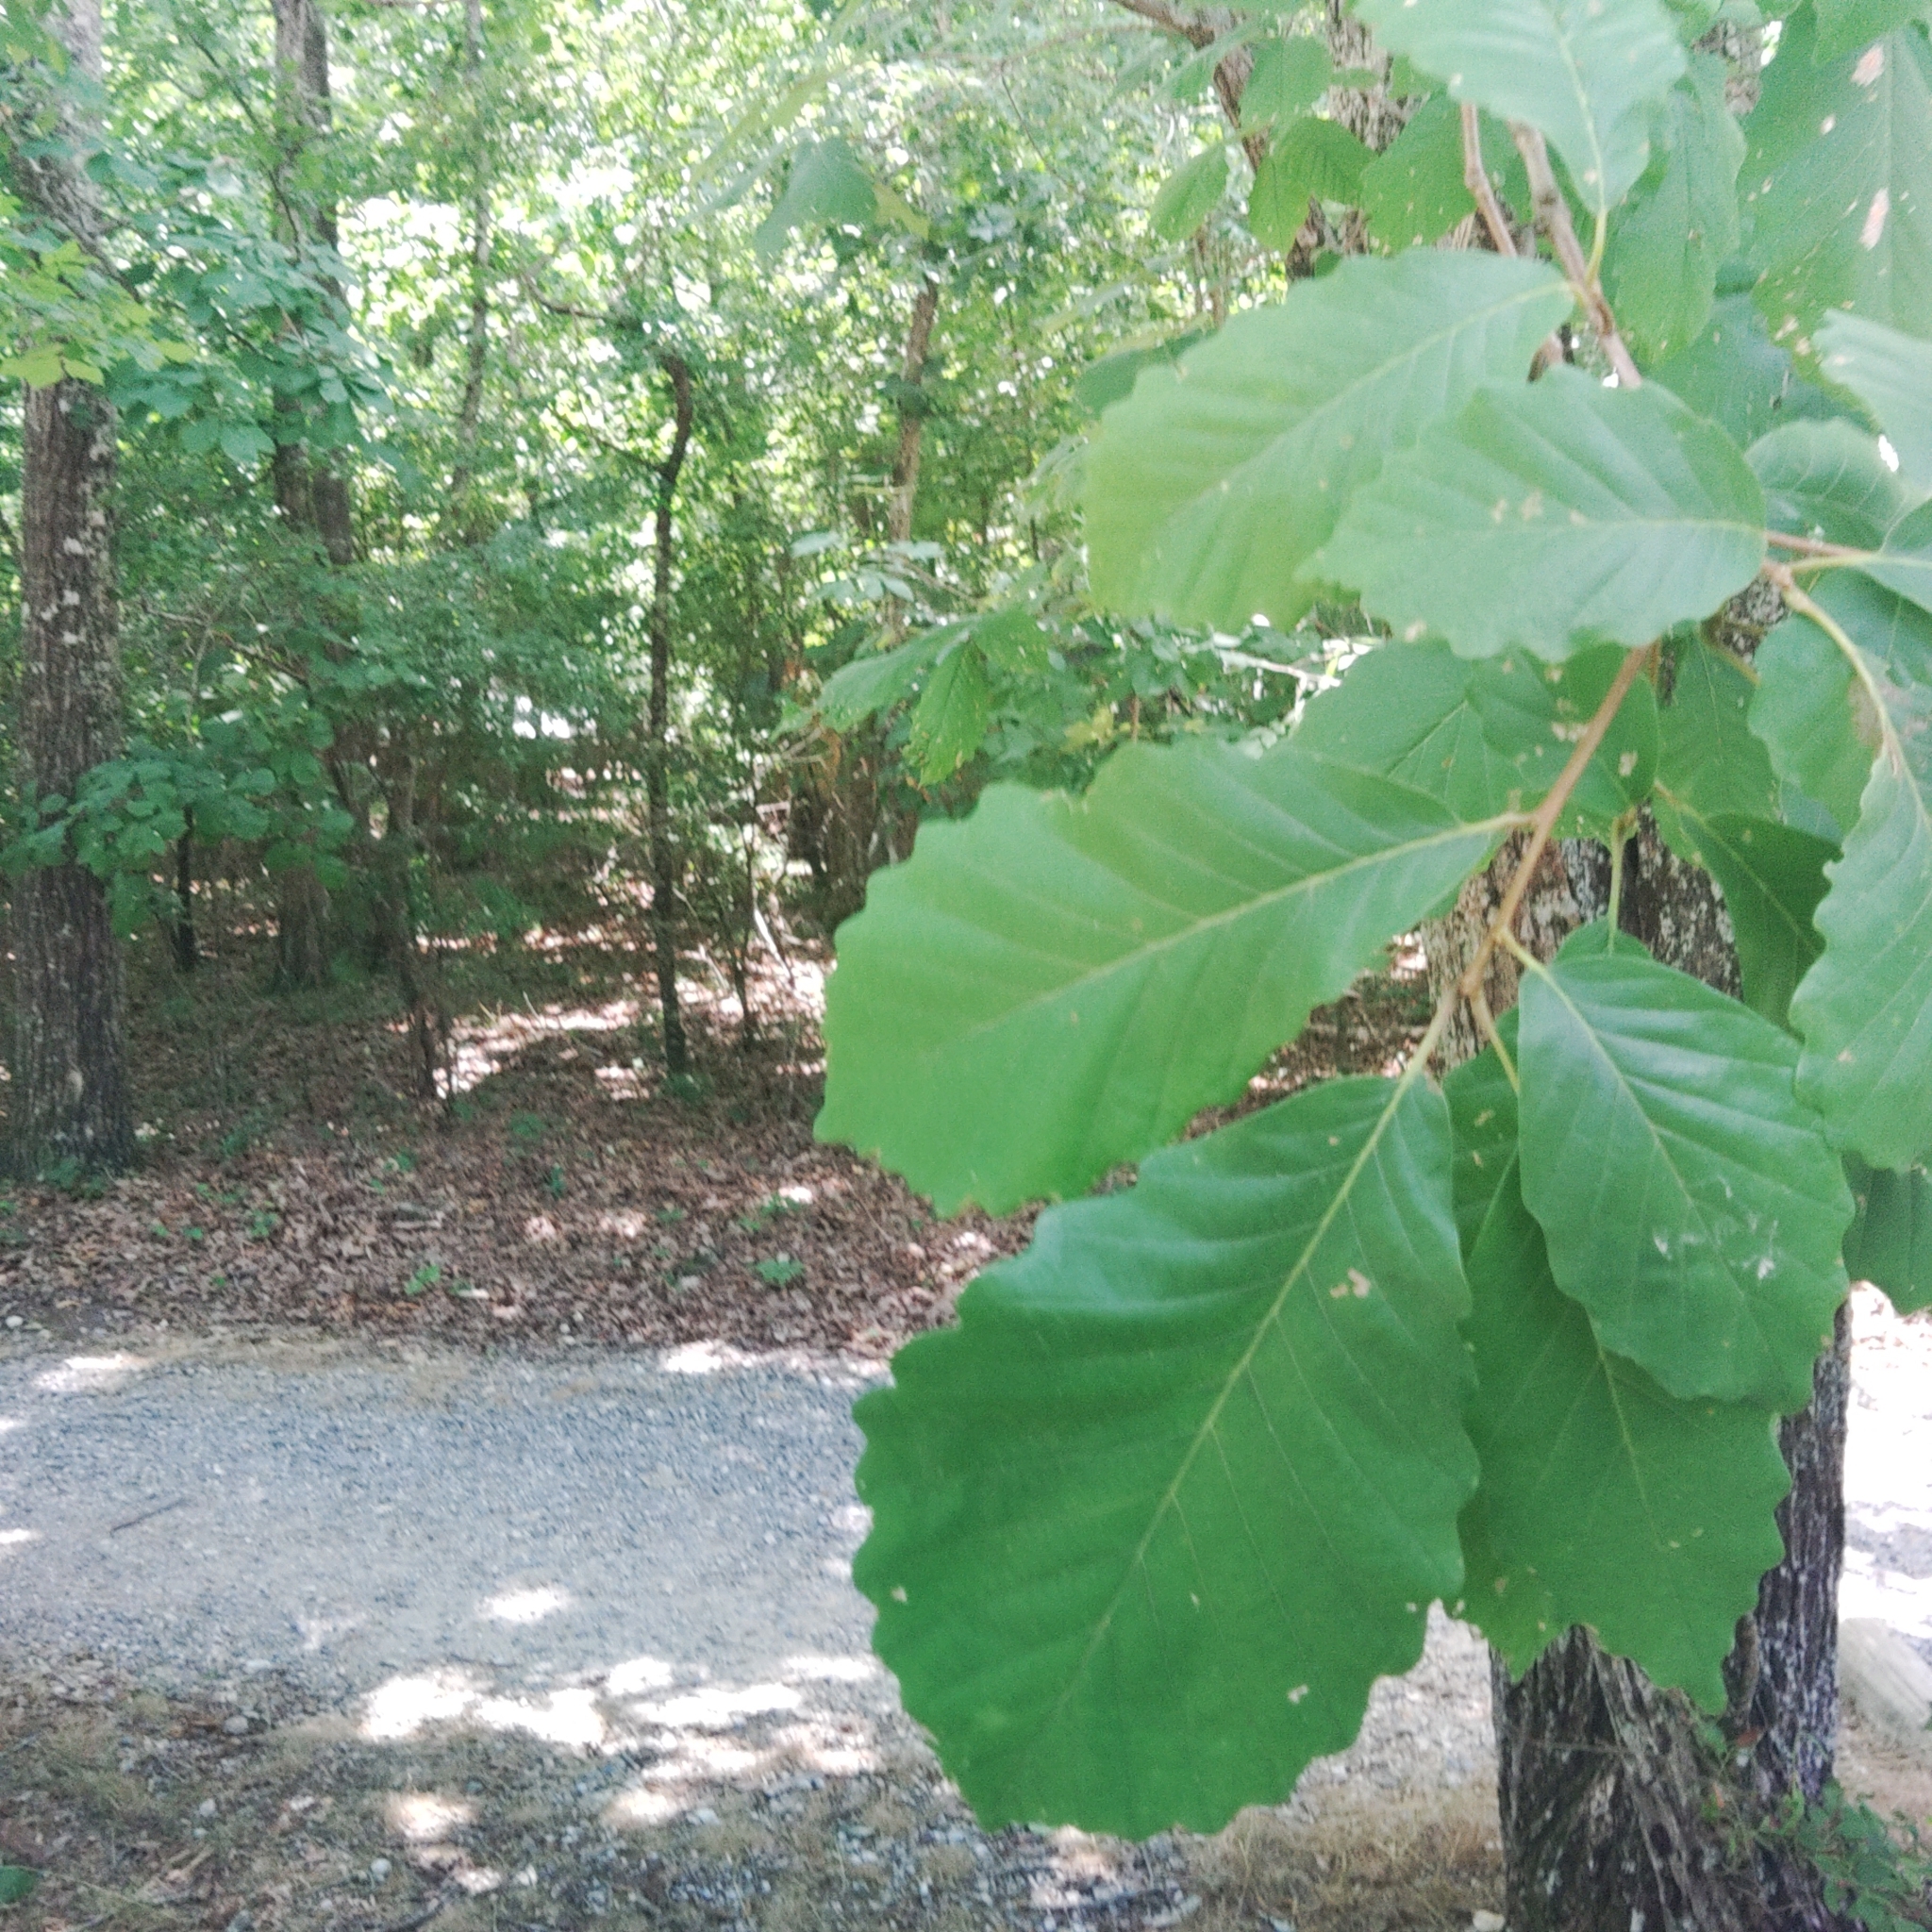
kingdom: Plantae
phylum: Tracheophyta
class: Magnoliopsida
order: Fagales
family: Fagaceae
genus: Quercus
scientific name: Quercus montana
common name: Chestnut oak
